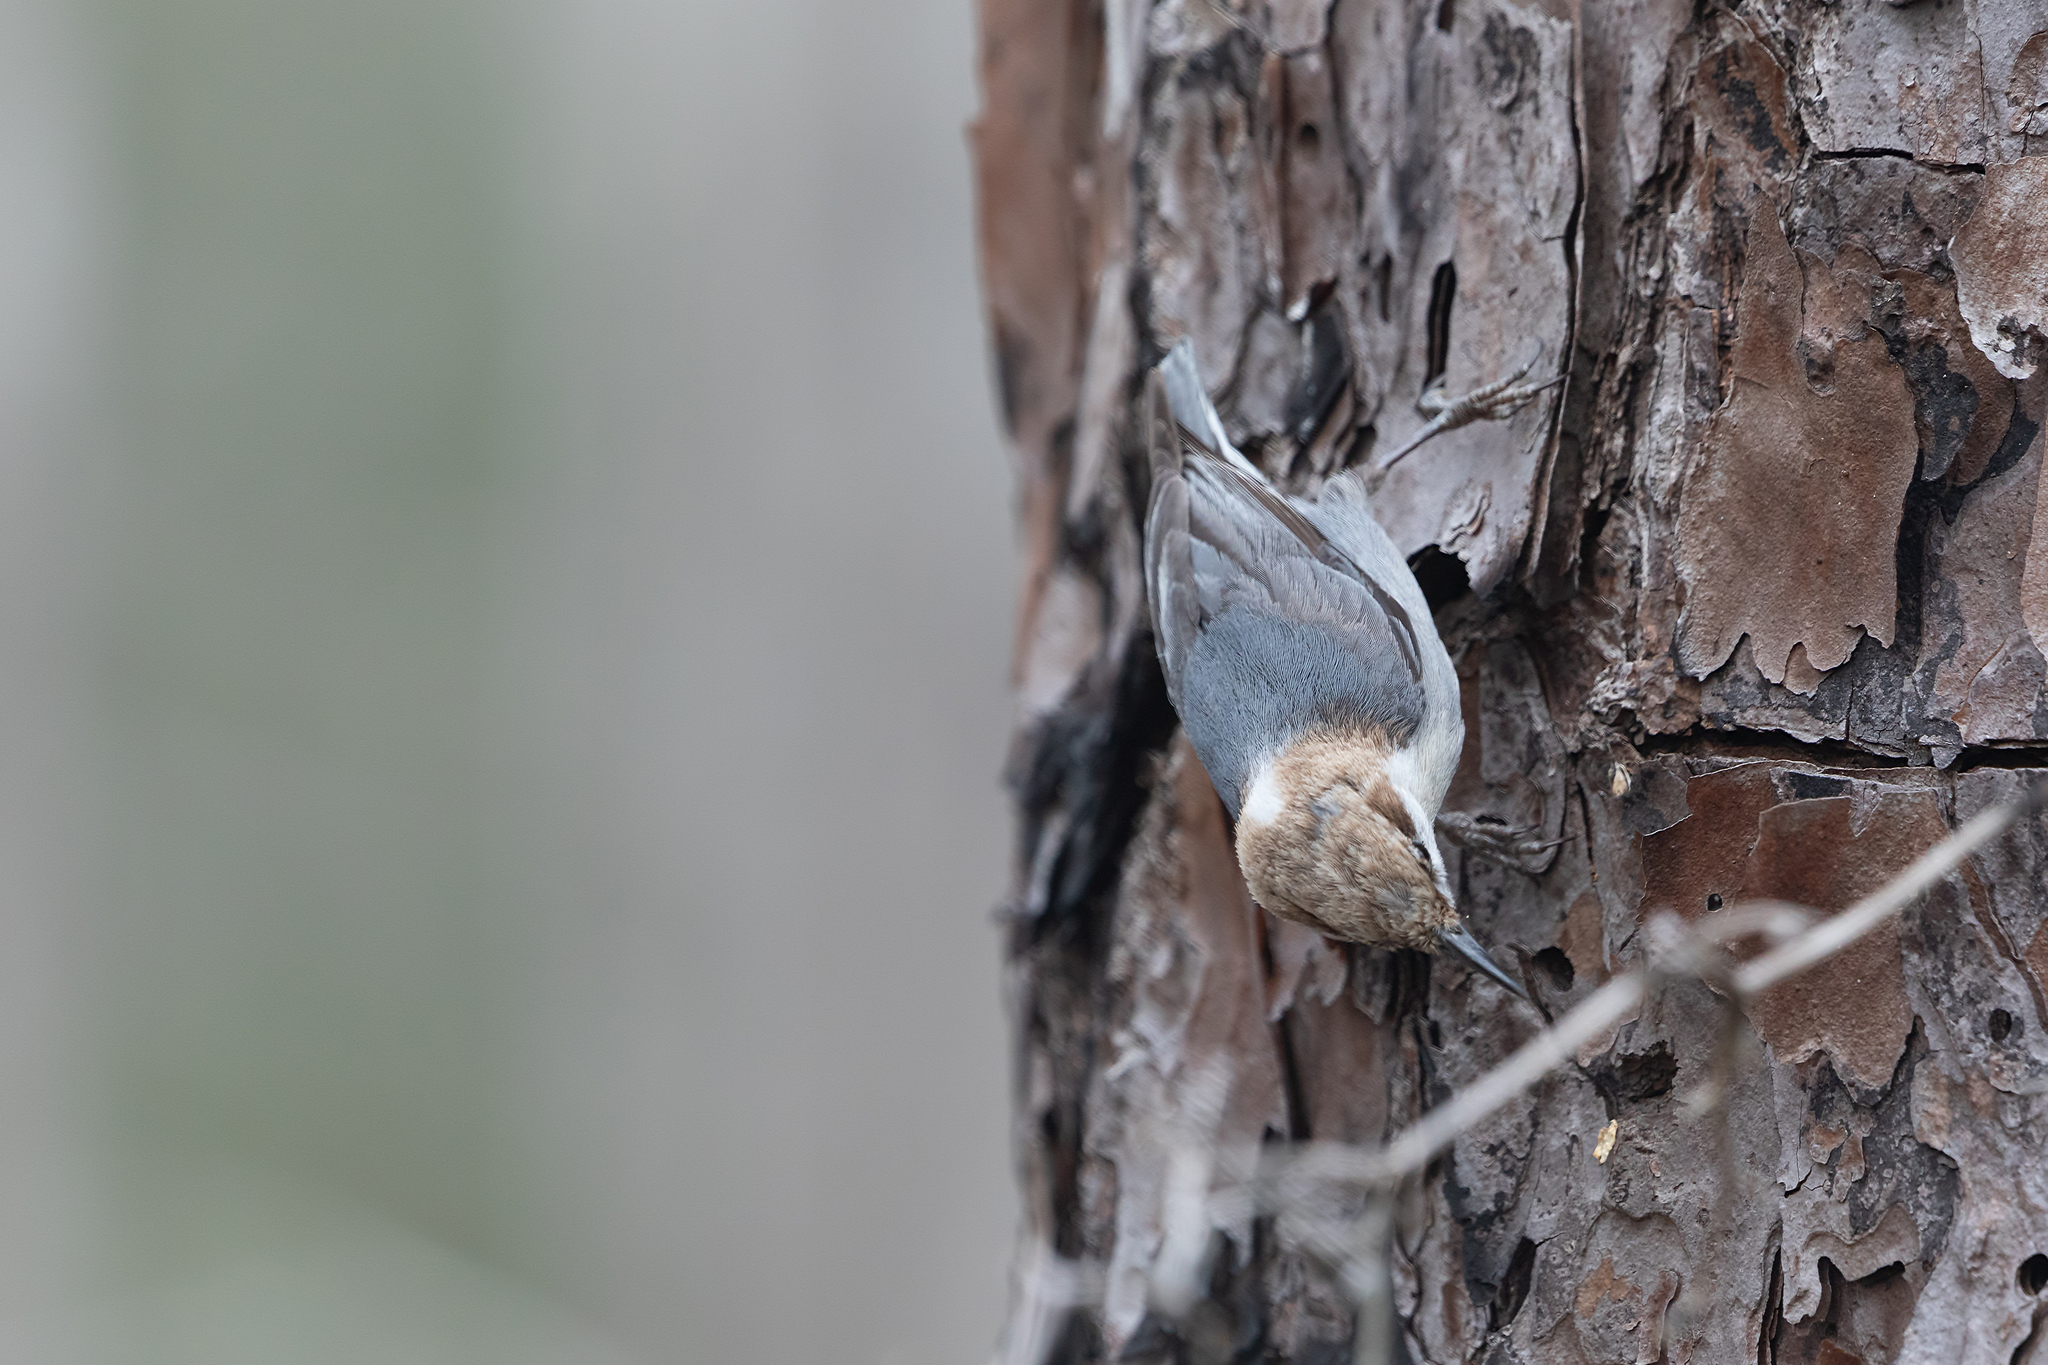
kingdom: Animalia
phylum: Chordata
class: Aves
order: Passeriformes
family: Sittidae
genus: Sitta
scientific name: Sitta pusilla
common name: Brown-headed nuthatch
